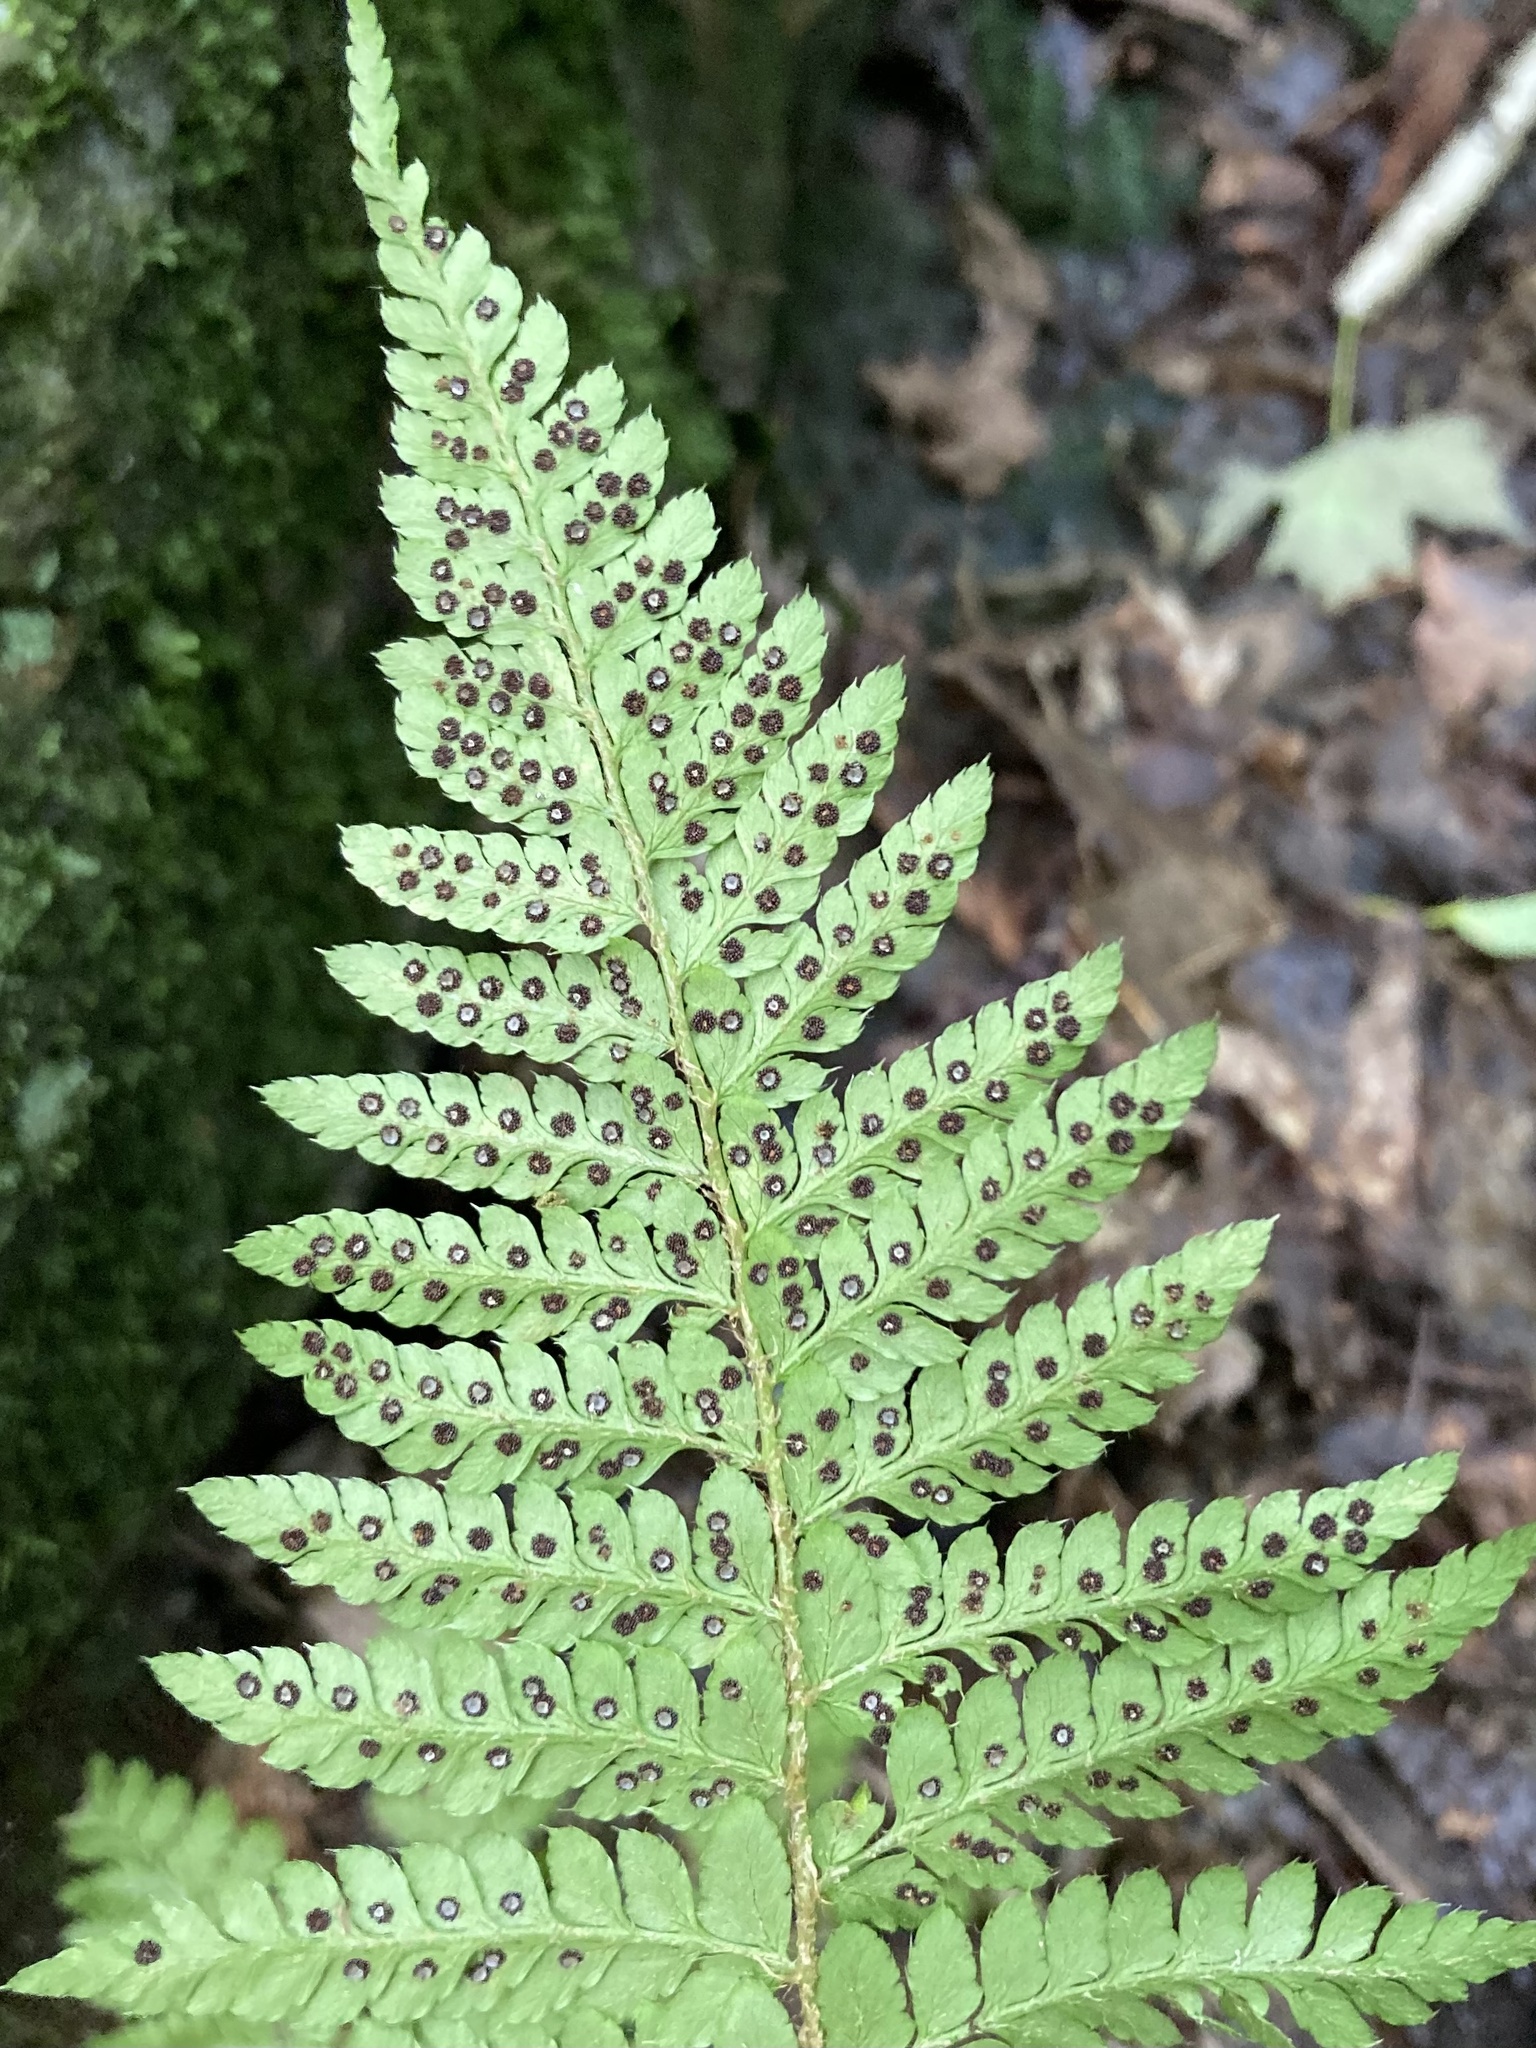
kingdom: Plantae
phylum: Tracheophyta
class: Polypodiopsida
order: Polypodiales
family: Dryopteridaceae
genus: Polystichum
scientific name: Polystichum braunii
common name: Braun's holly fern
